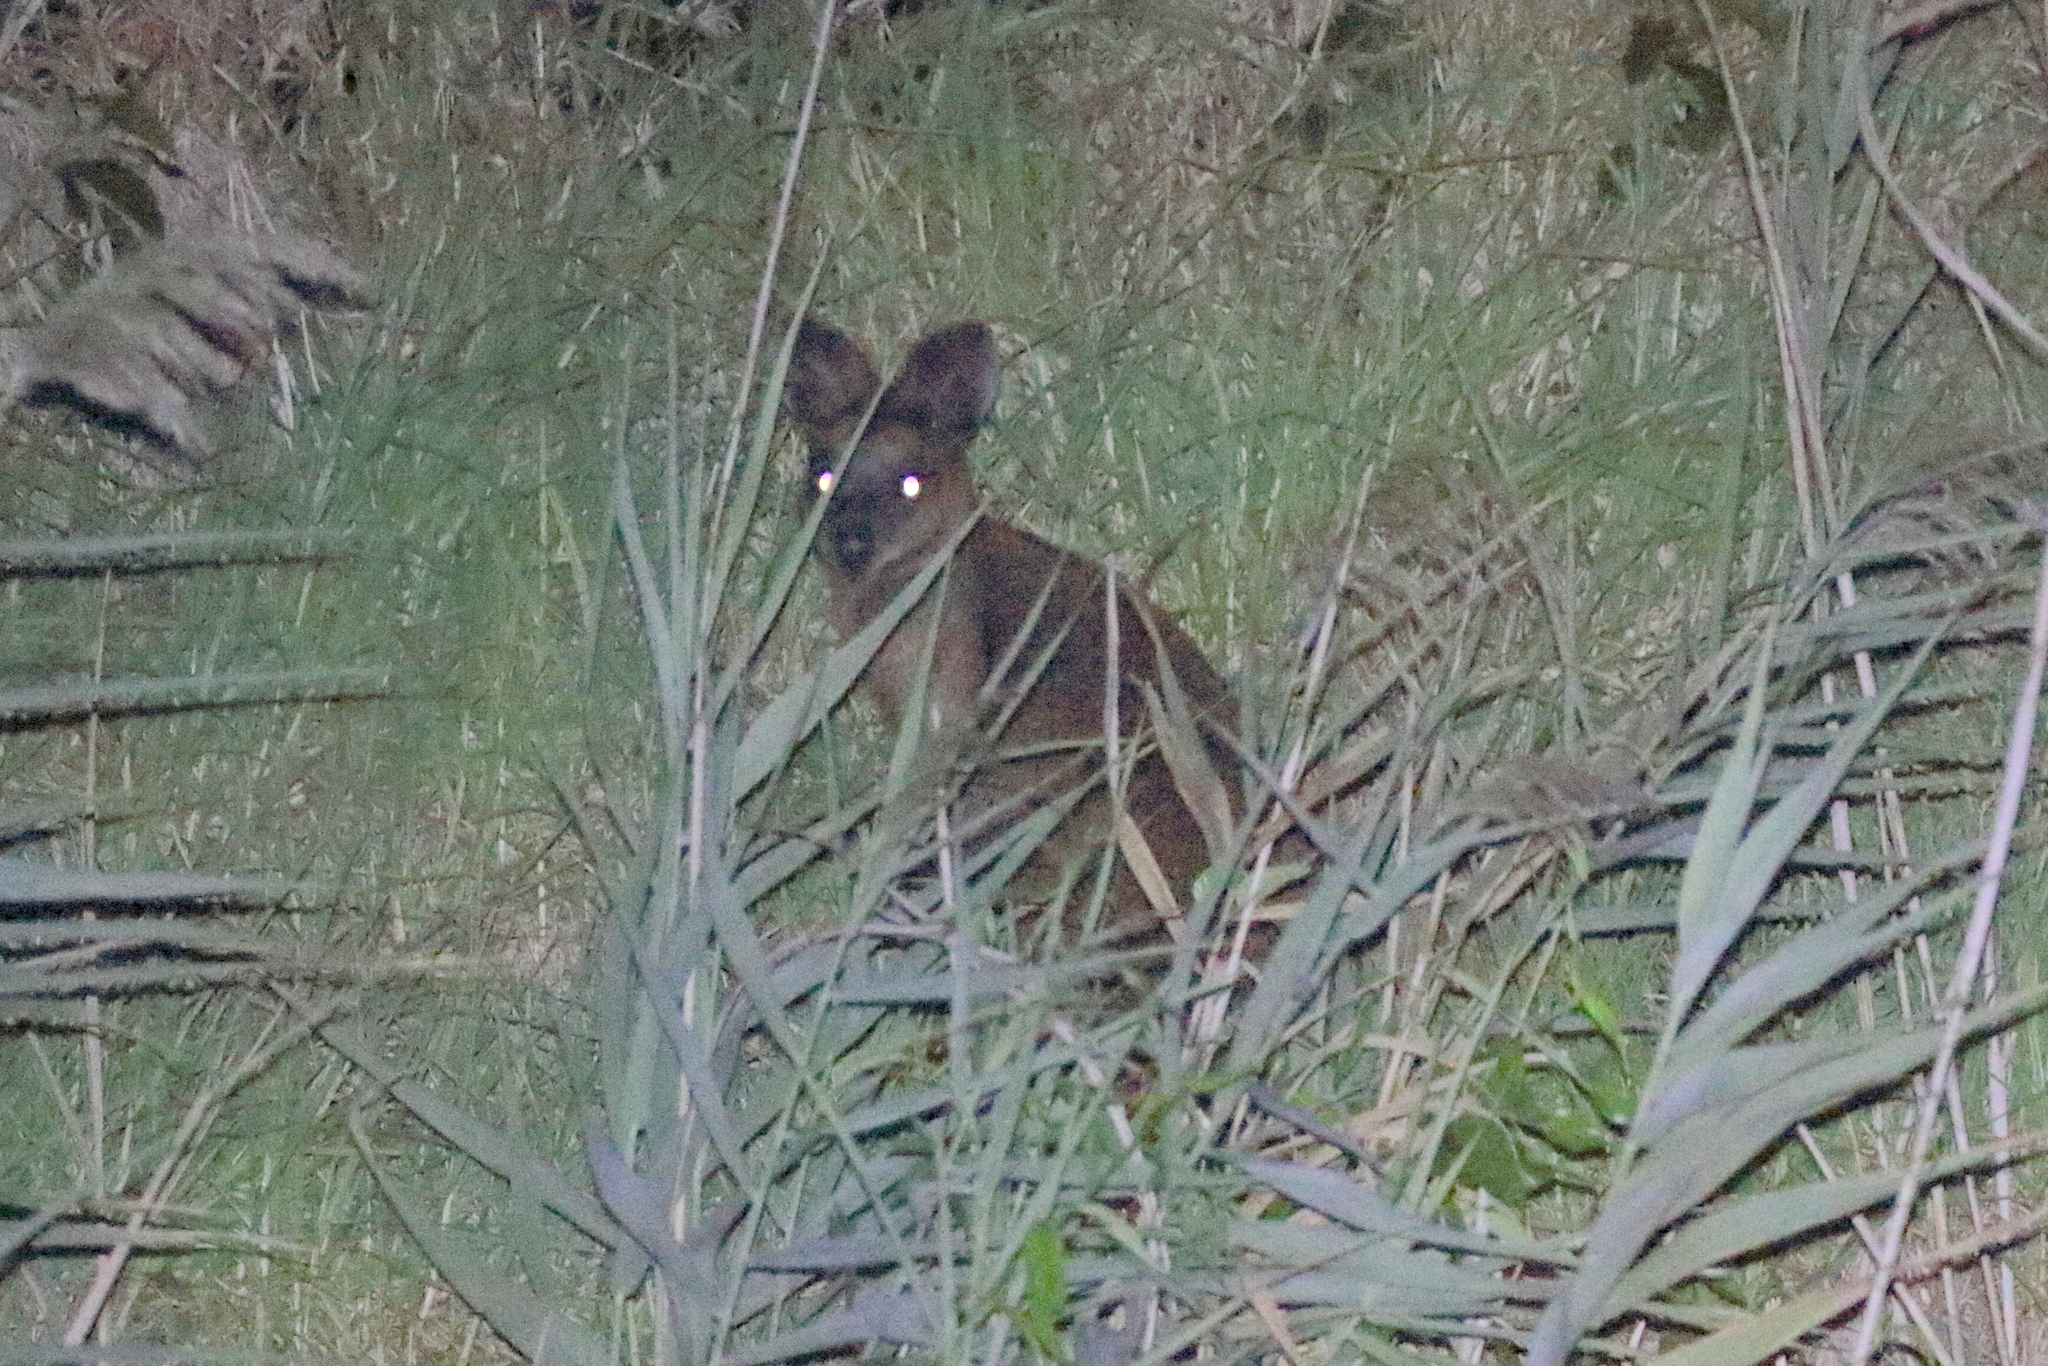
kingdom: Animalia
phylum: Chordata
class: Mammalia
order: Diprotodontia
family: Macropodidae
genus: Wallabia
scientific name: Wallabia bicolor
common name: Swamp wallaby
